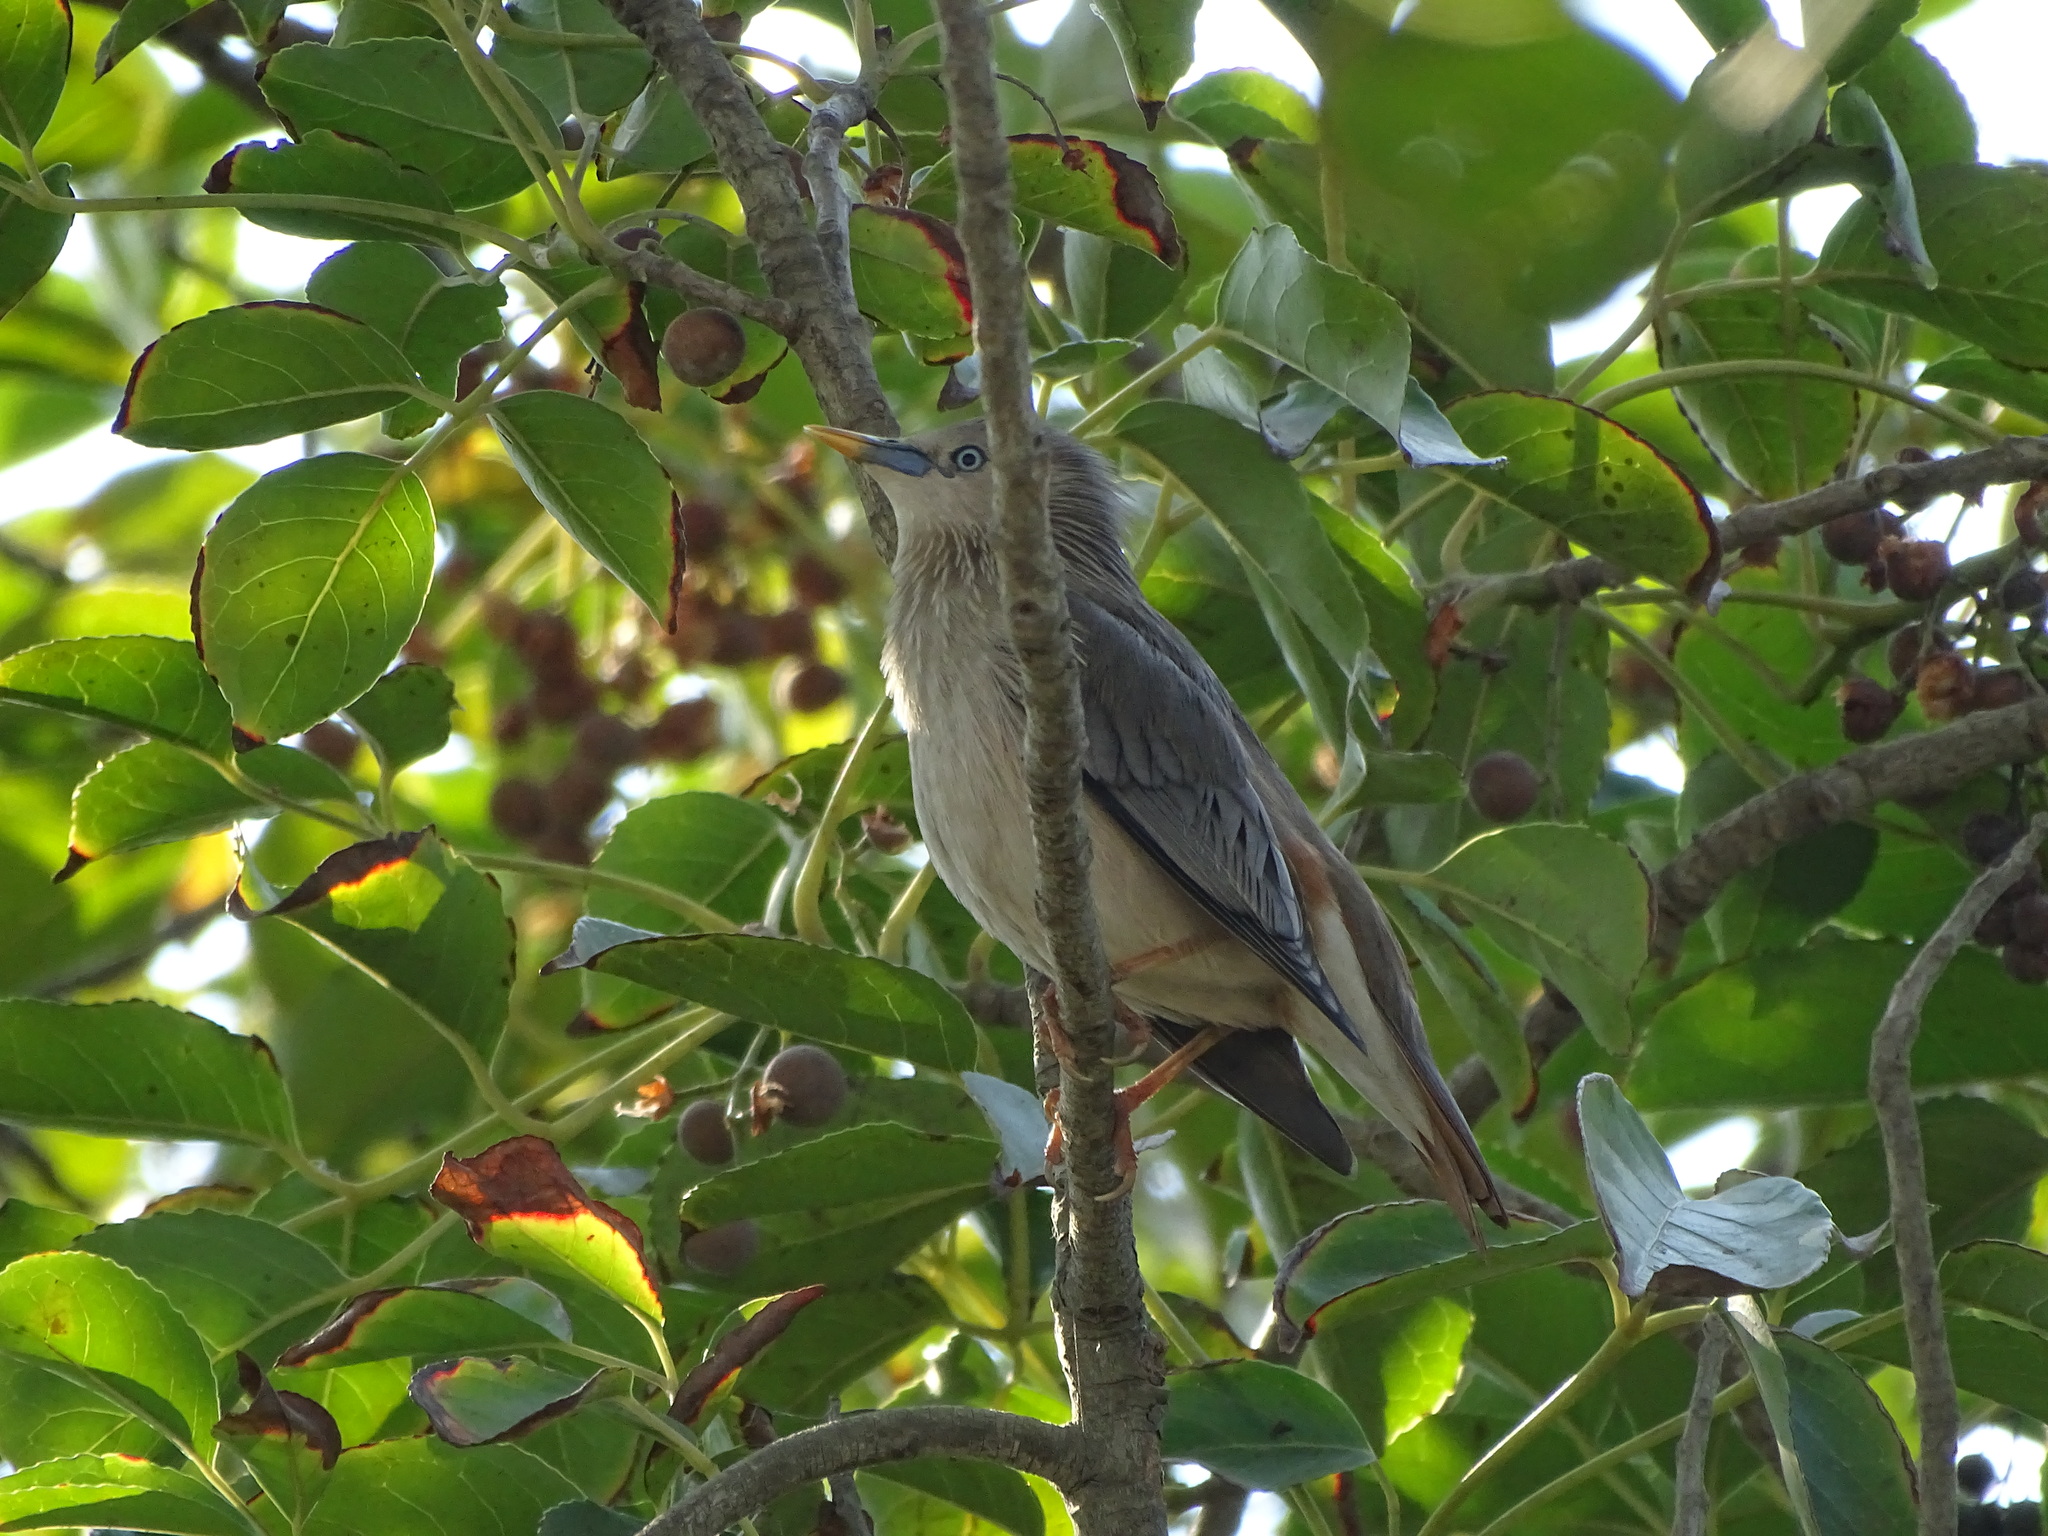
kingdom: Animalia
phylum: Chordata
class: Aves
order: Passeriformes
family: Sturnidae
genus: Sturnia
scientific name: Sturnia malabarica
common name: Chestnut-tailed starling
